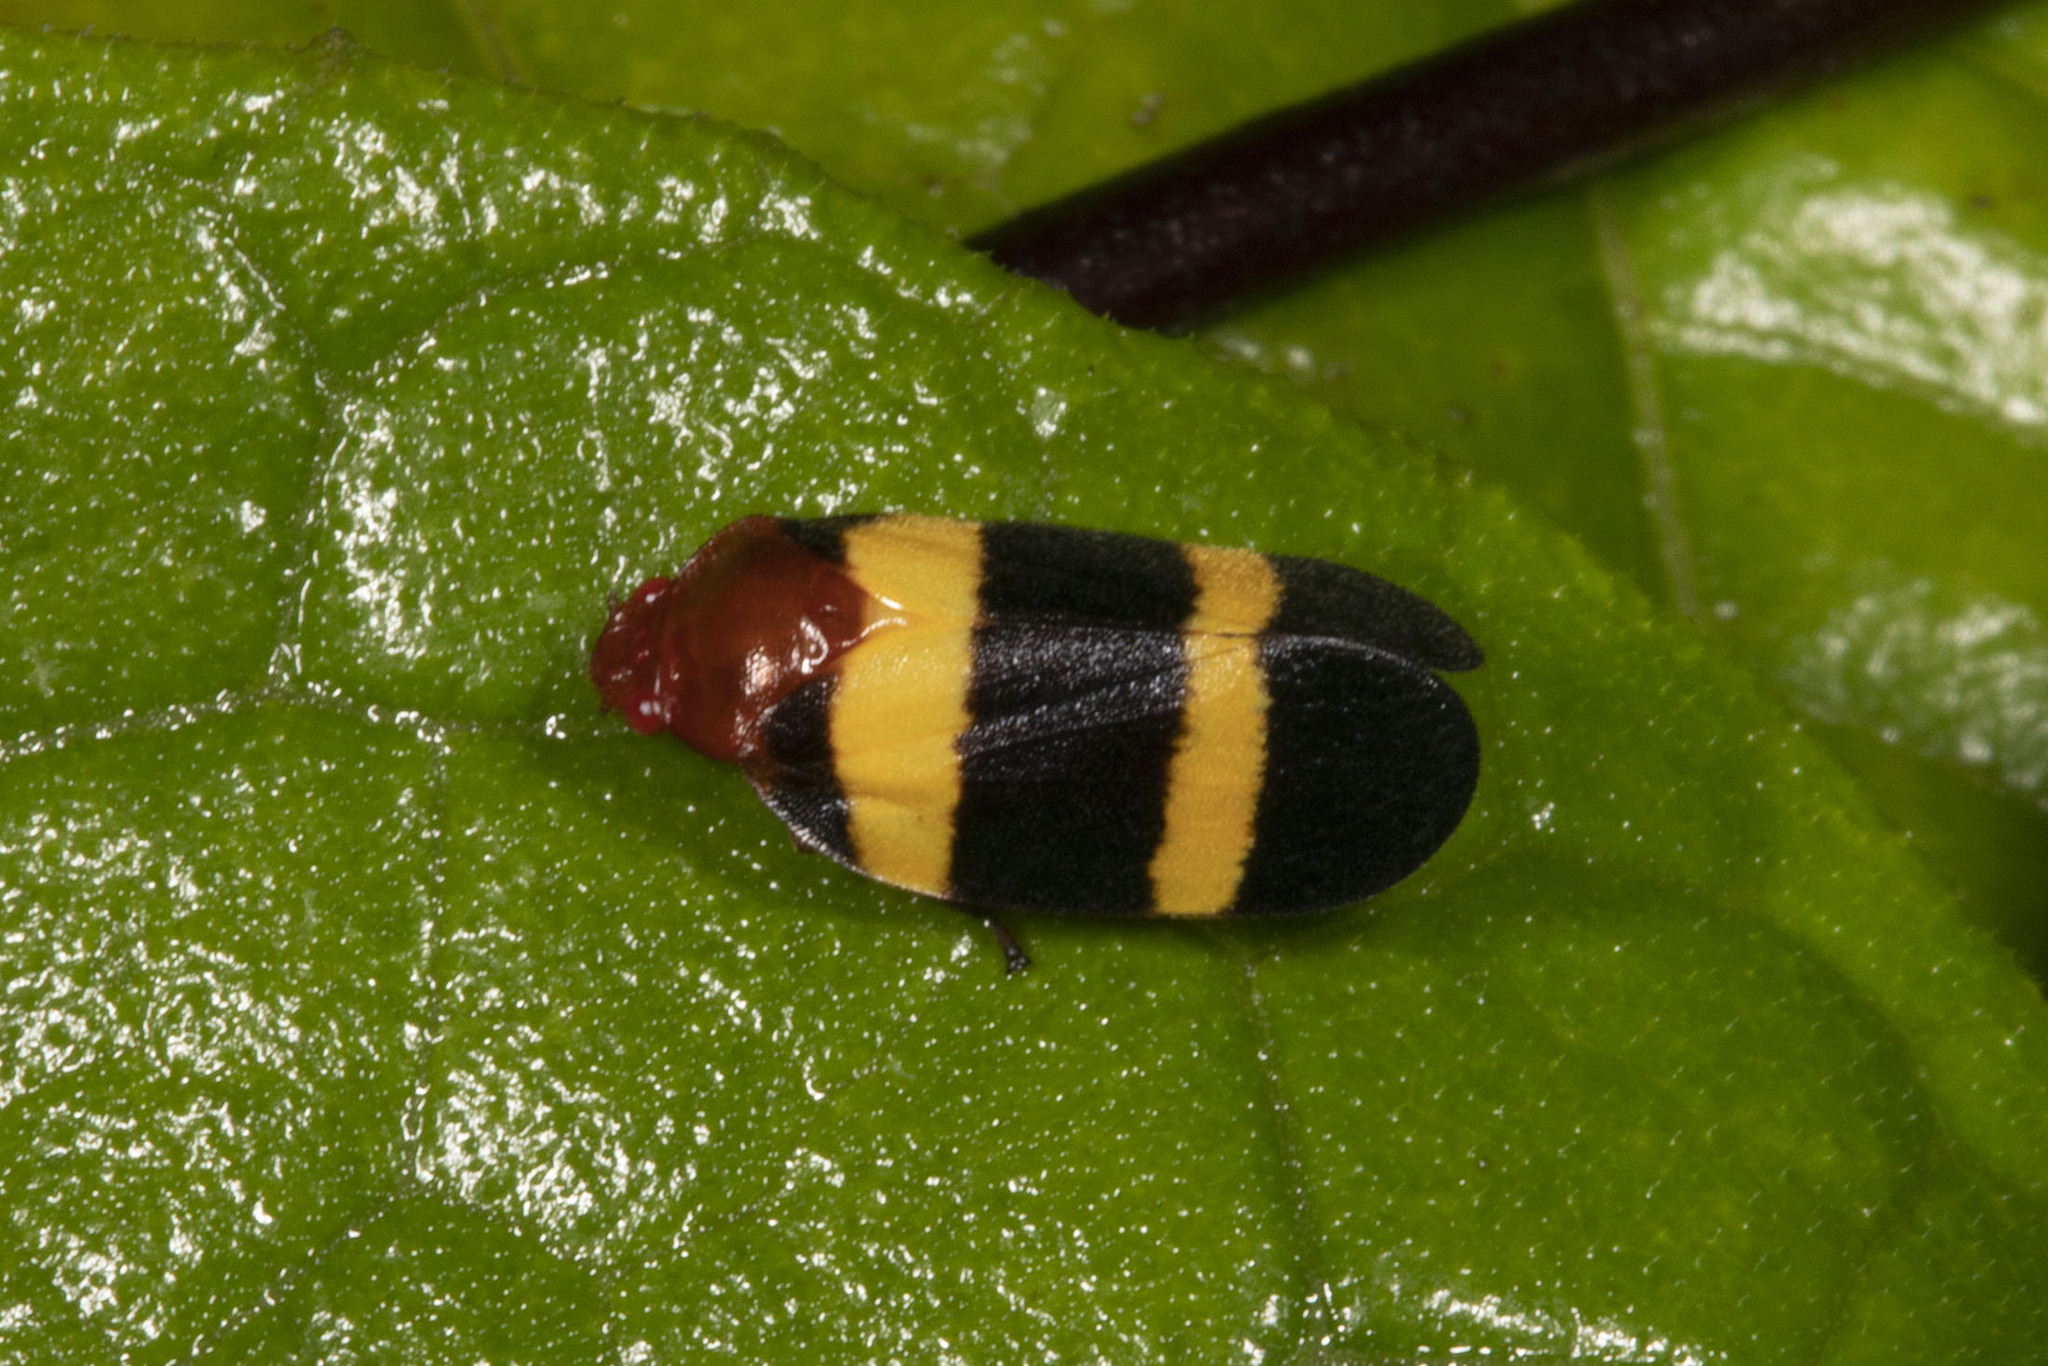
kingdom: Animalia
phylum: Arthropoda
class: Insecta
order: Hemiptera
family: Cercopidae
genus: Sphenorhina
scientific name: Sphenorhina rubra
